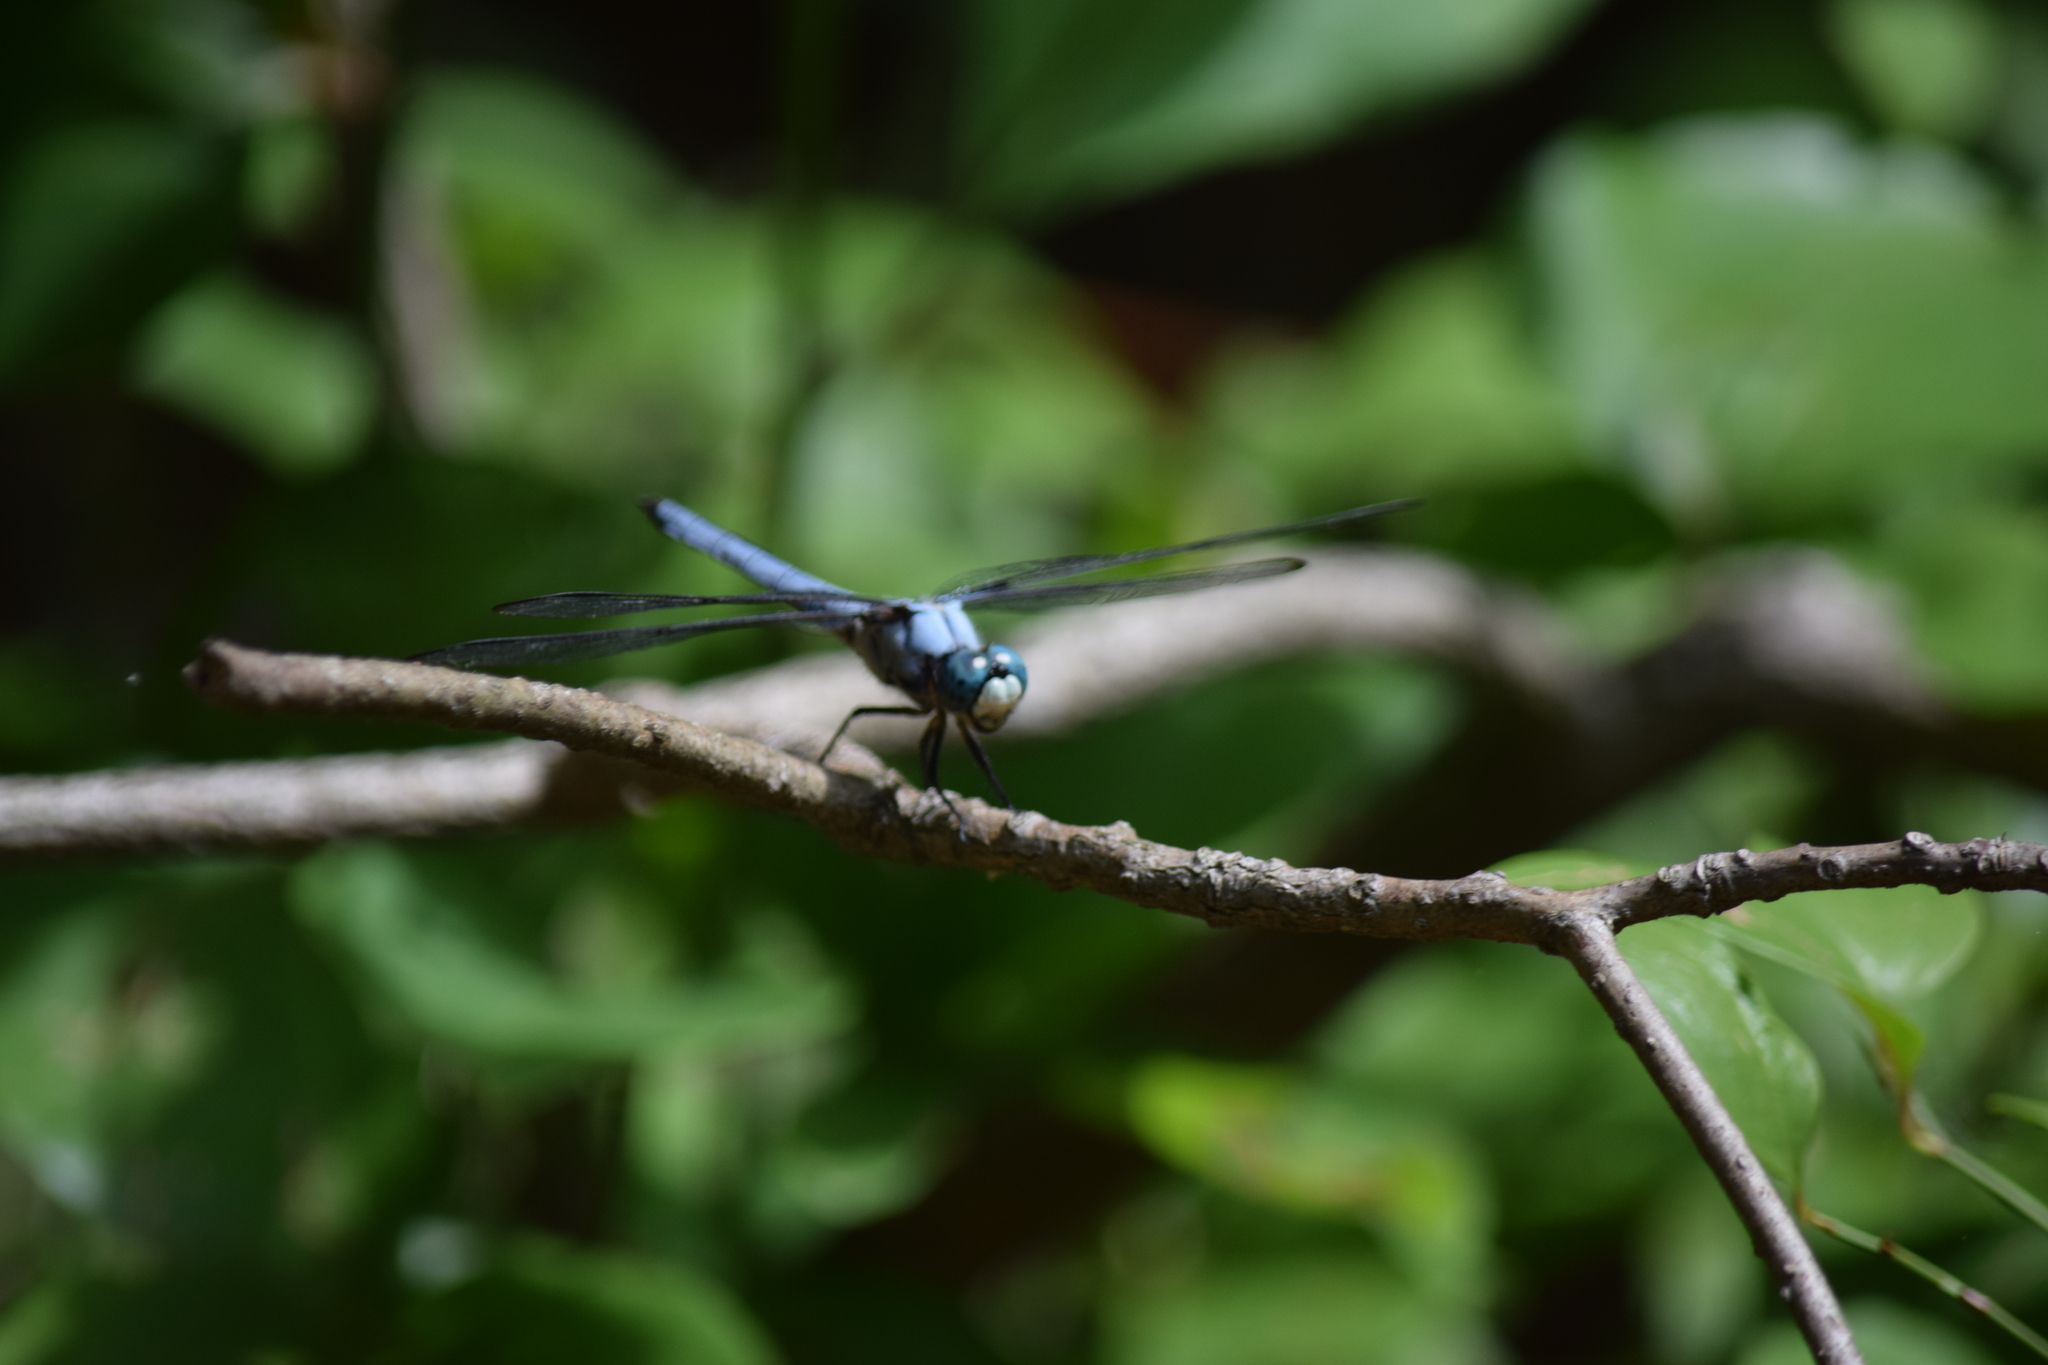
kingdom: Animalia
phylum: Arthropoda
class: Insecta
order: Odonata
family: Libellulidae
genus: Libellula
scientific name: Libellula vibrans
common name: Great blue skimmer
